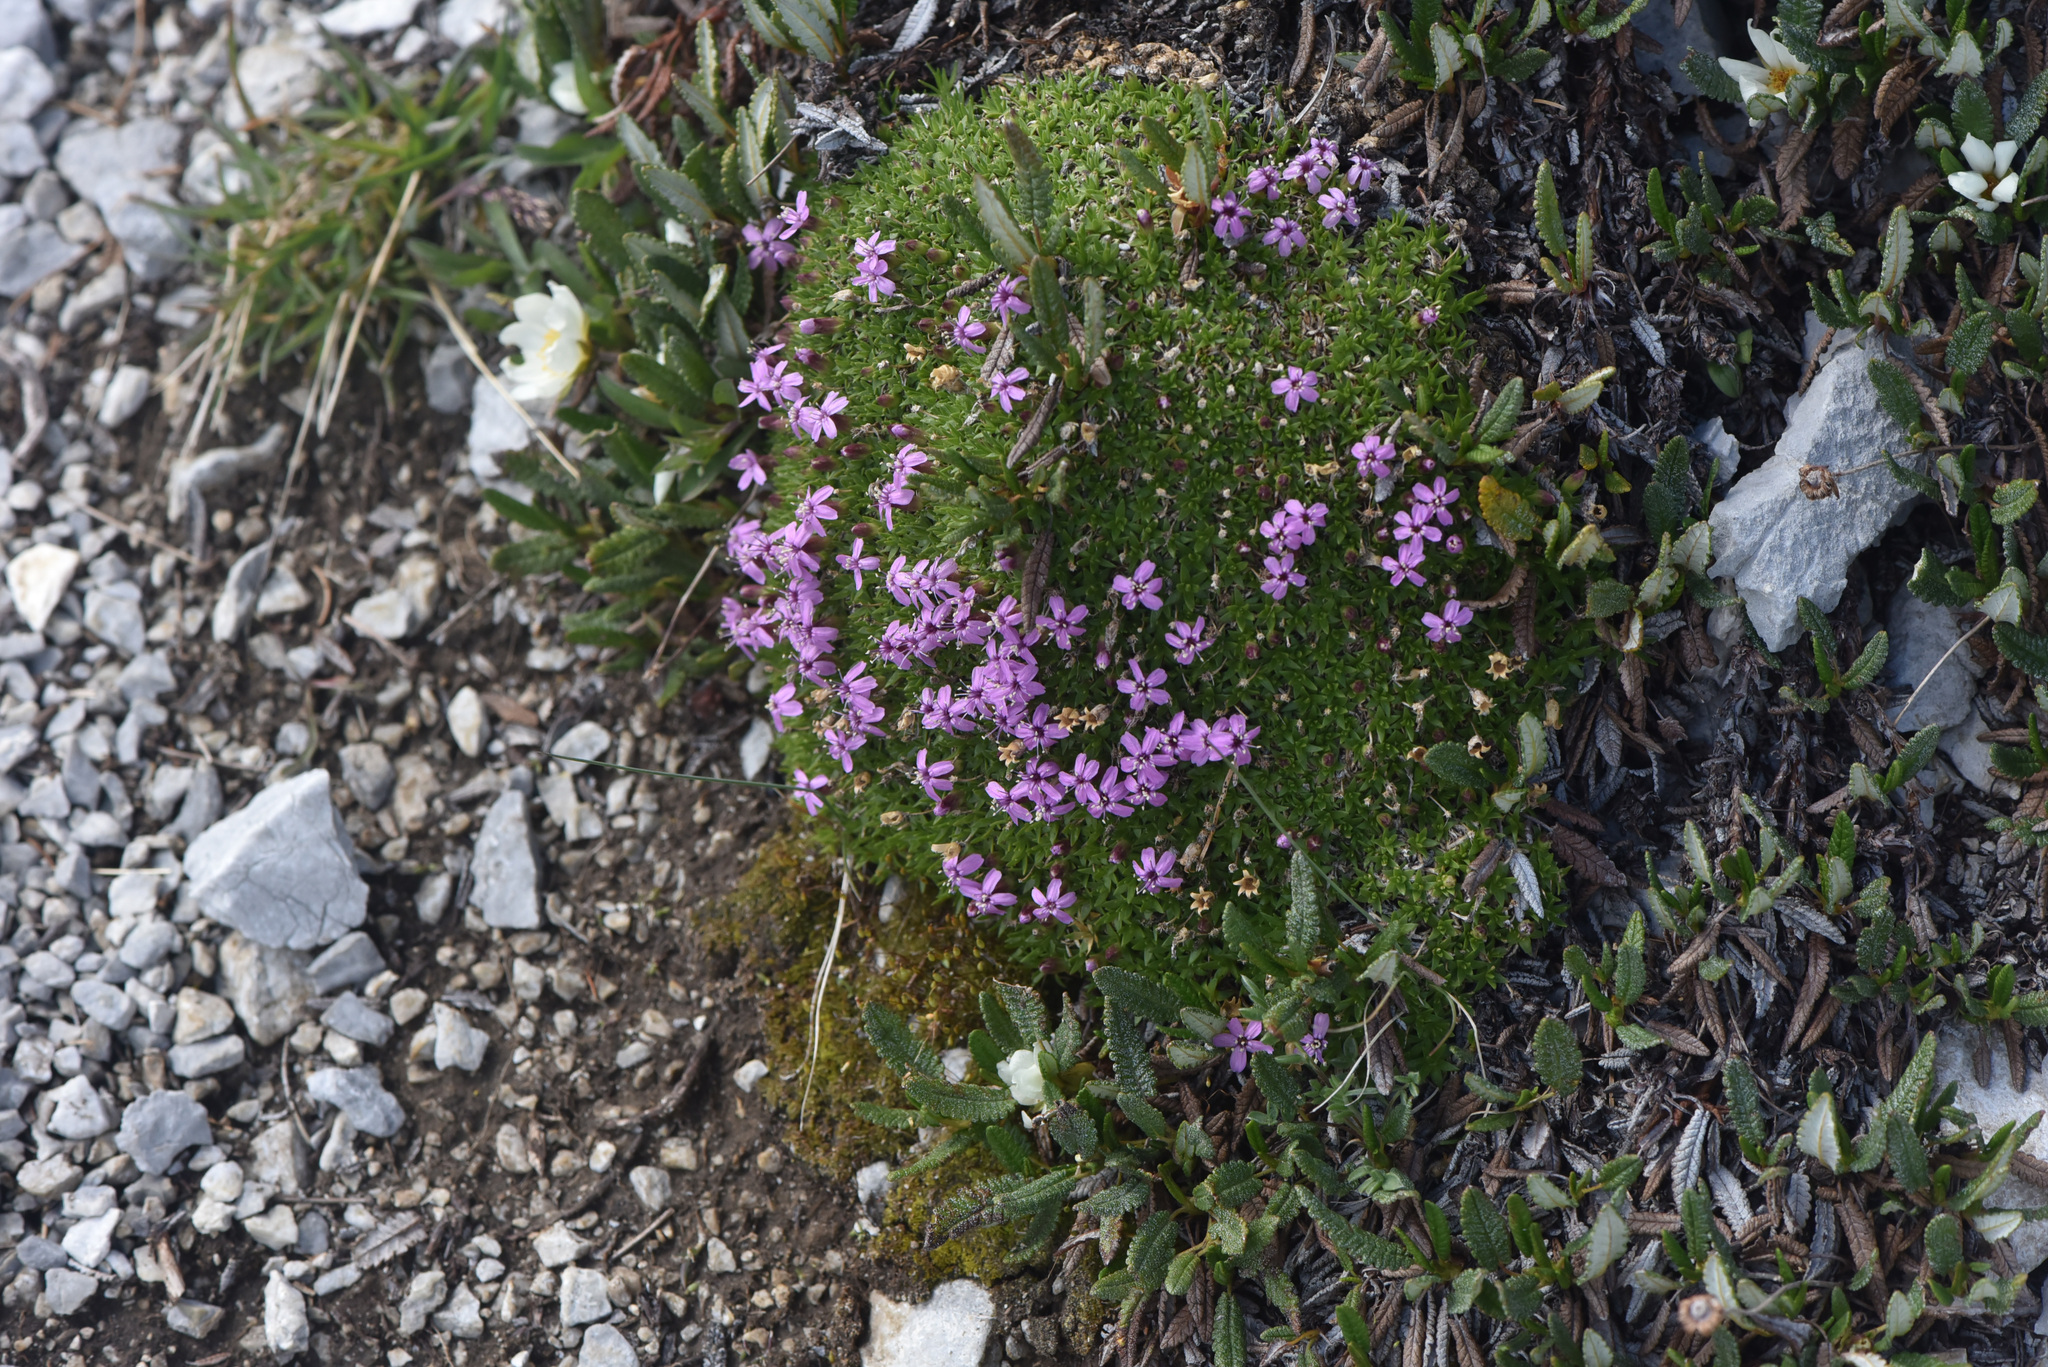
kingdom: Plantae
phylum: Tracheophyta
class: Magnoliopsida
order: Caryophyllales
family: Caryophyllaceae
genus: Silene
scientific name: Silene acaulis
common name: Moss campion
